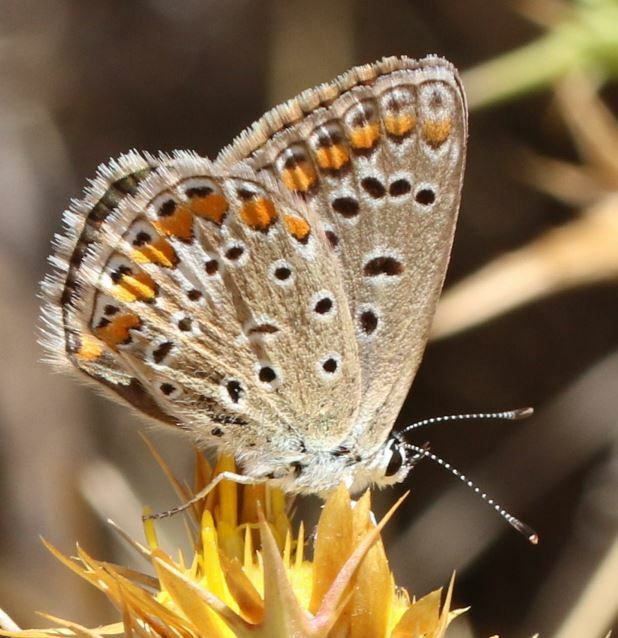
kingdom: Animalia
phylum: Arthropoda
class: Insecta
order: Lepidoptera
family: Lycaenidae
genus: Polyommatus
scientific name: Polyommatus icarus
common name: Common blue
